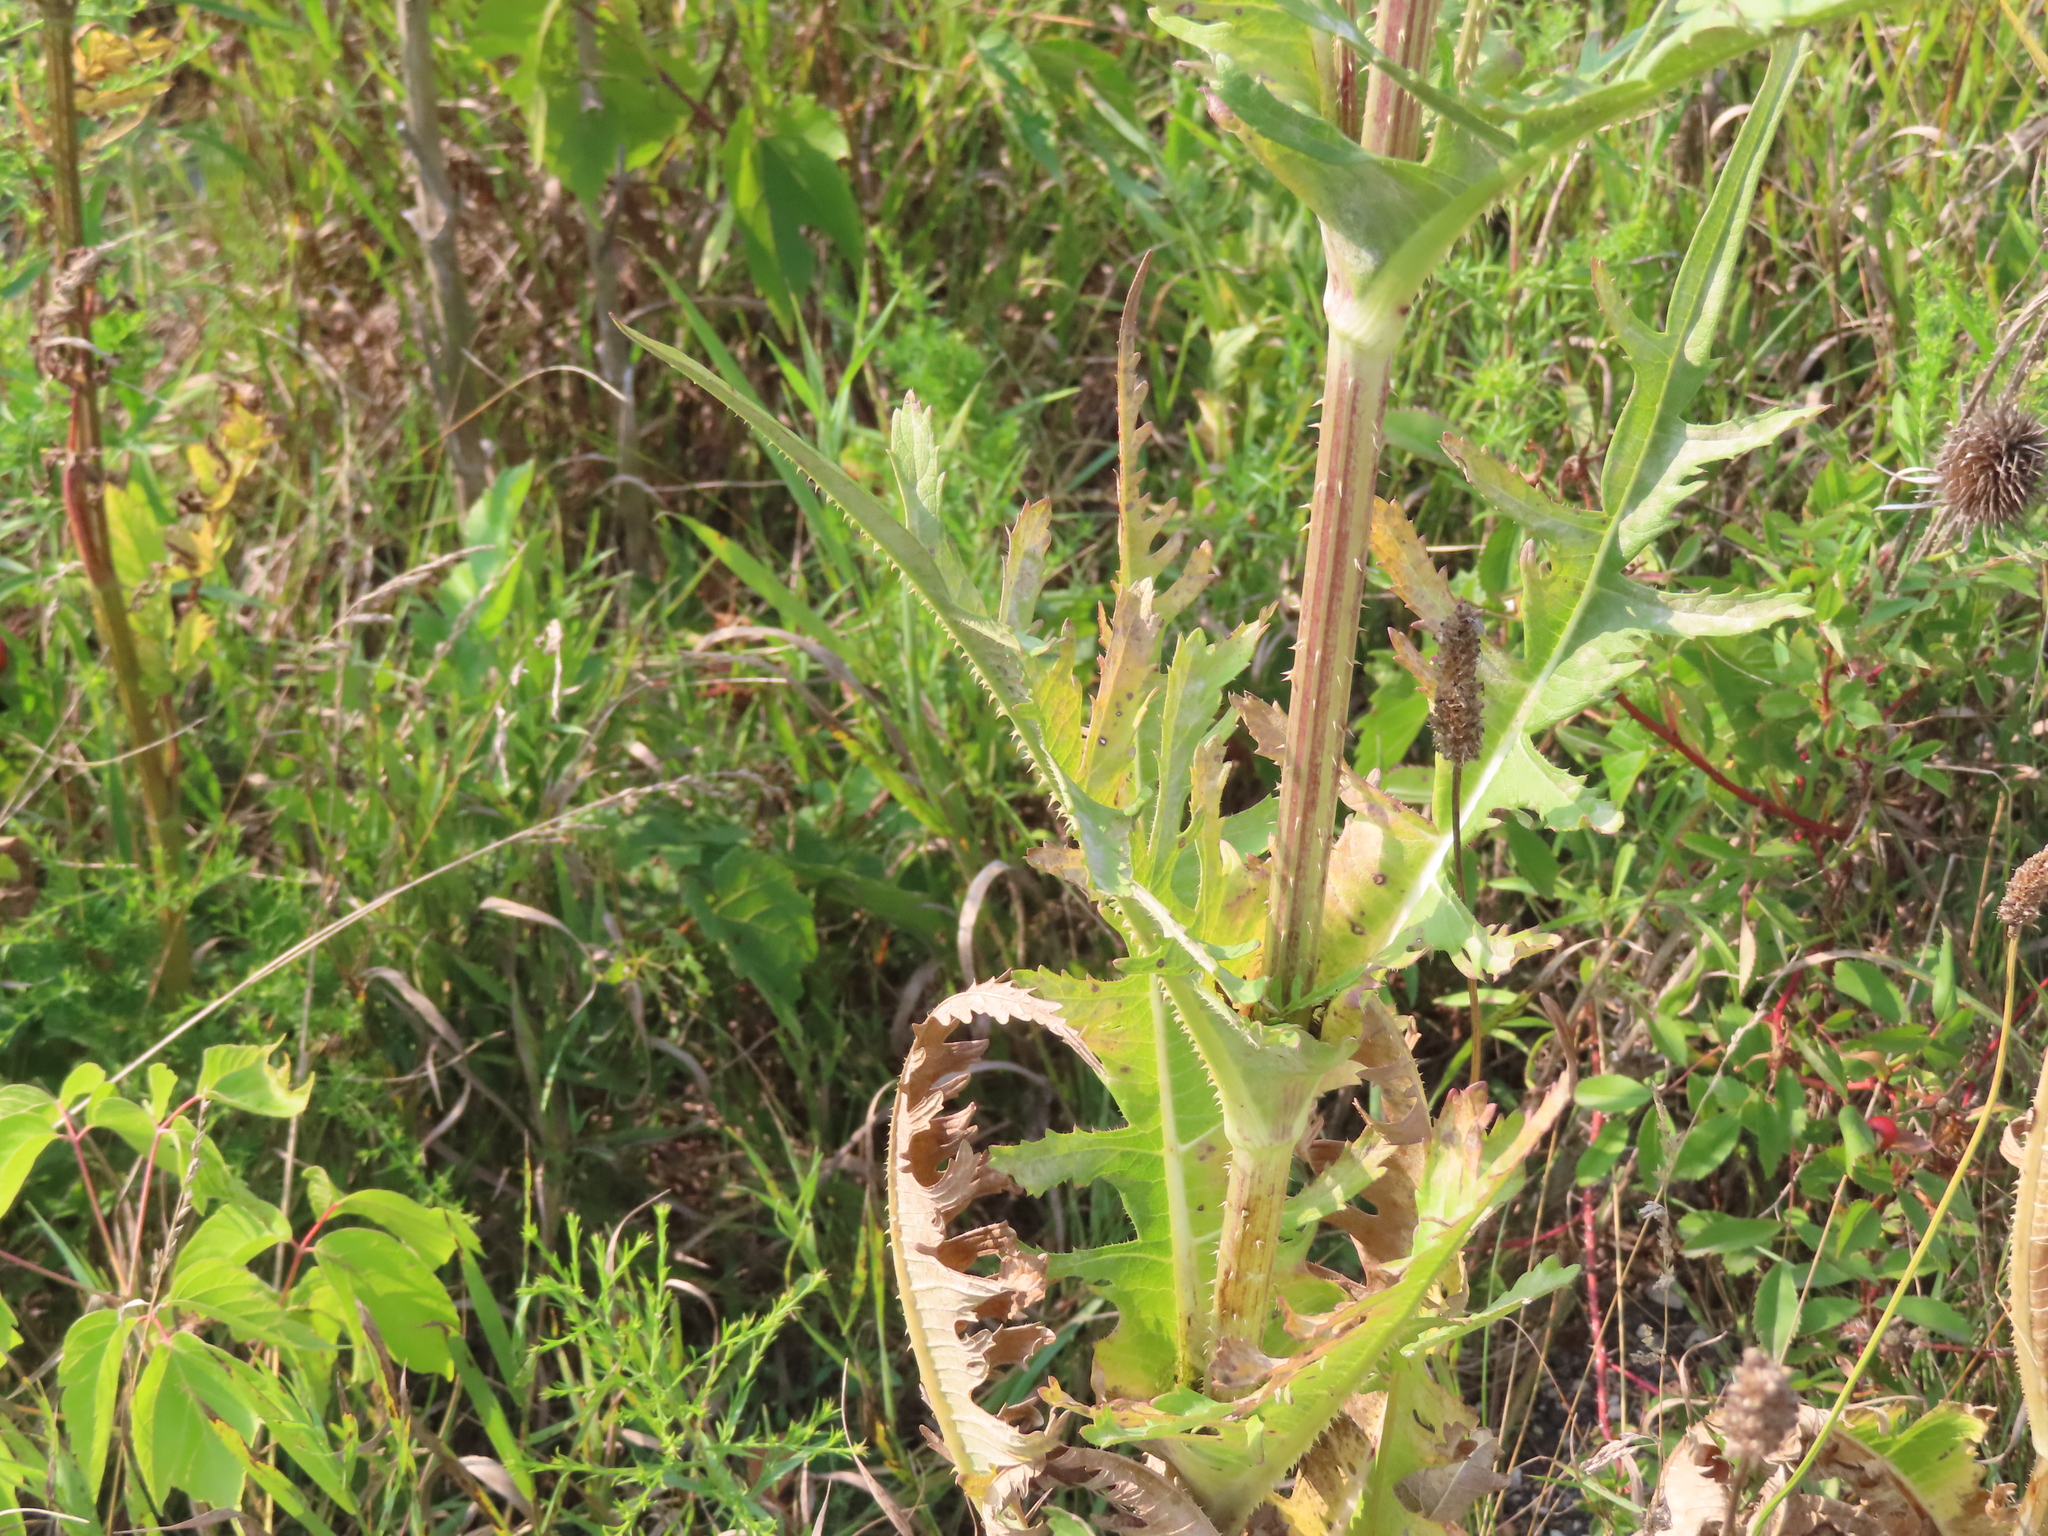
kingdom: Plantae
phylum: Tracheophyta
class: Magnoliopsida
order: Dipsacales
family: Caprifoliaceae
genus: Dipsacus
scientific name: Dipsacus laciniatus
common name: Cut-leaved teasel
